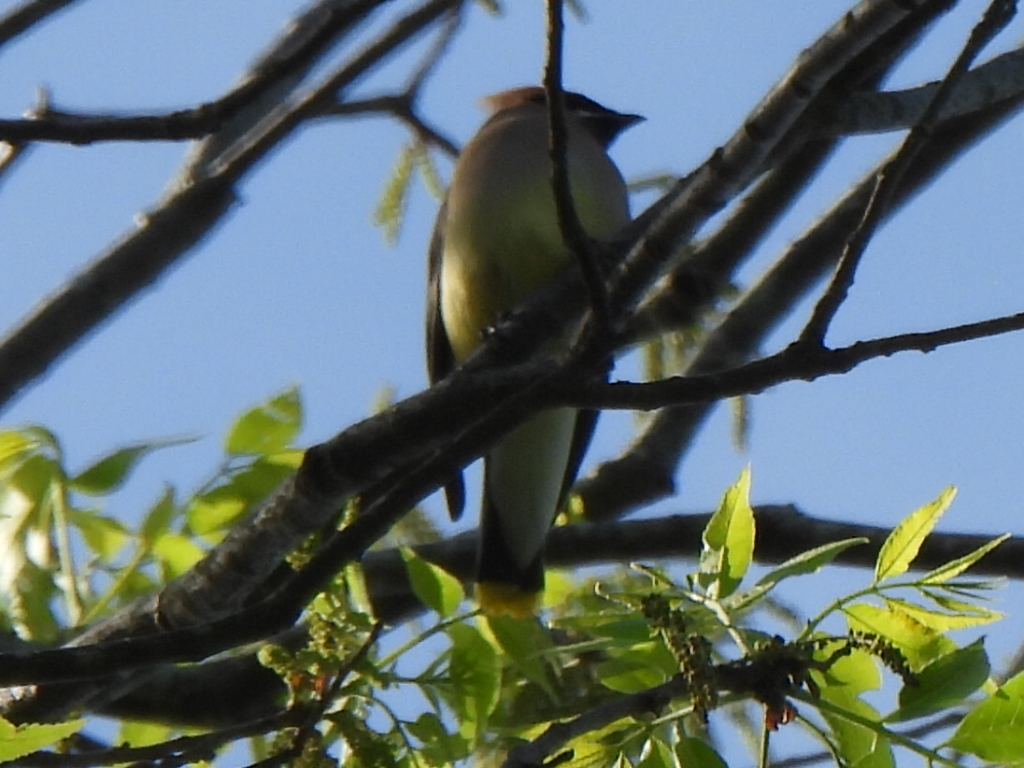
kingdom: Animalia
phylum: Chordata
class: Aves
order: Passeriformes
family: Bombycillidae
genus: Bombycilla
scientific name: Bombycilla cedrorum
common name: Cedar waxwing
